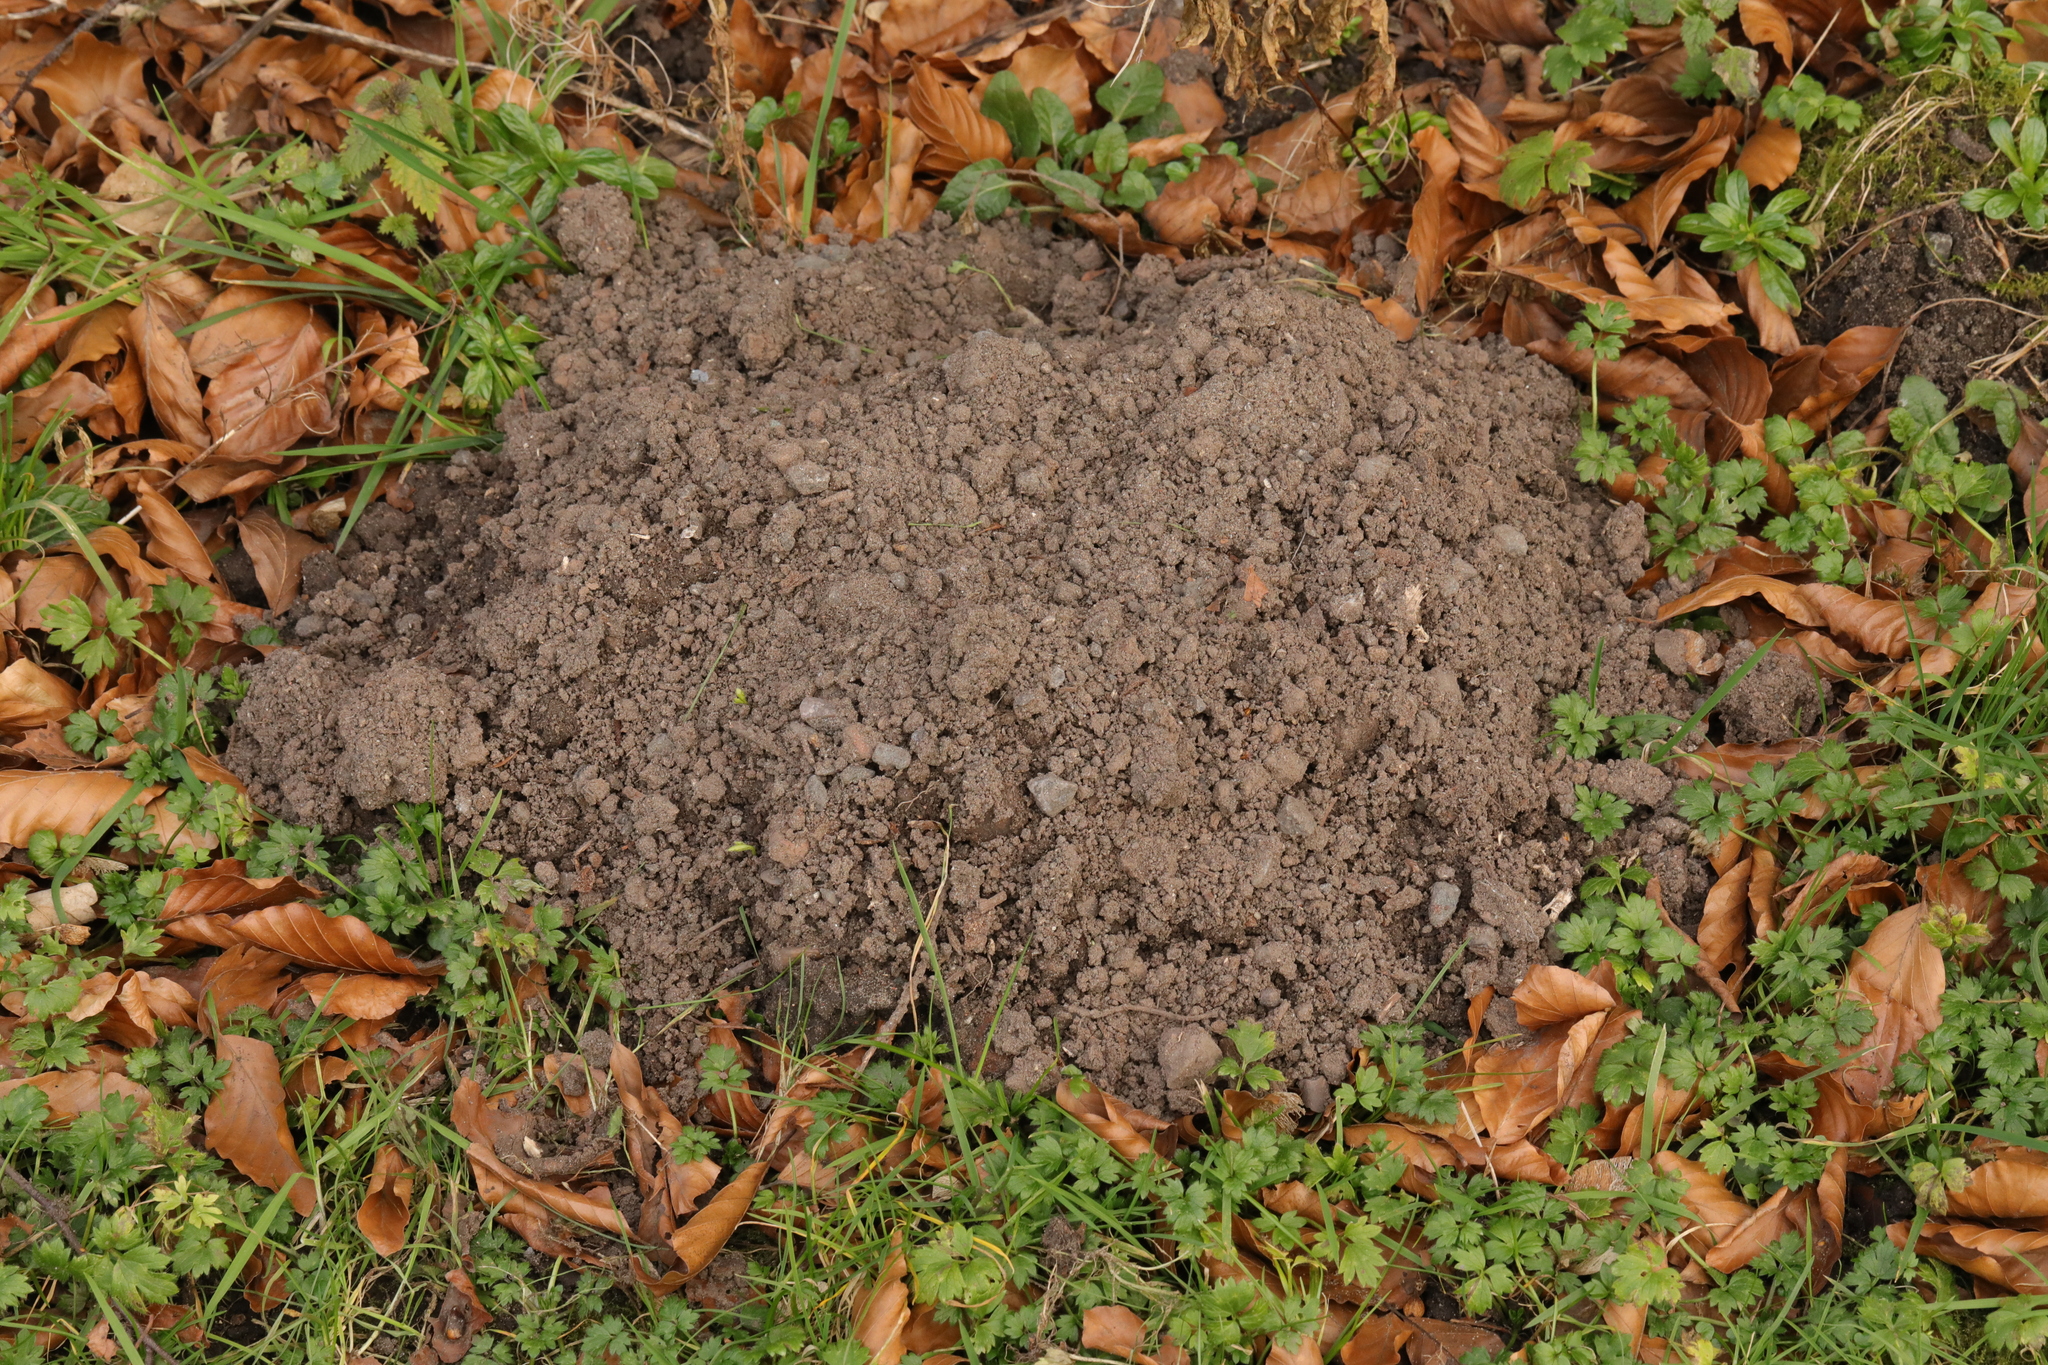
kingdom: Animalia
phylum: Chordata
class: Mammalia
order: Soricomorpha
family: Talpidae
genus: Talpa
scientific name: Talpa europaea
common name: European mole
